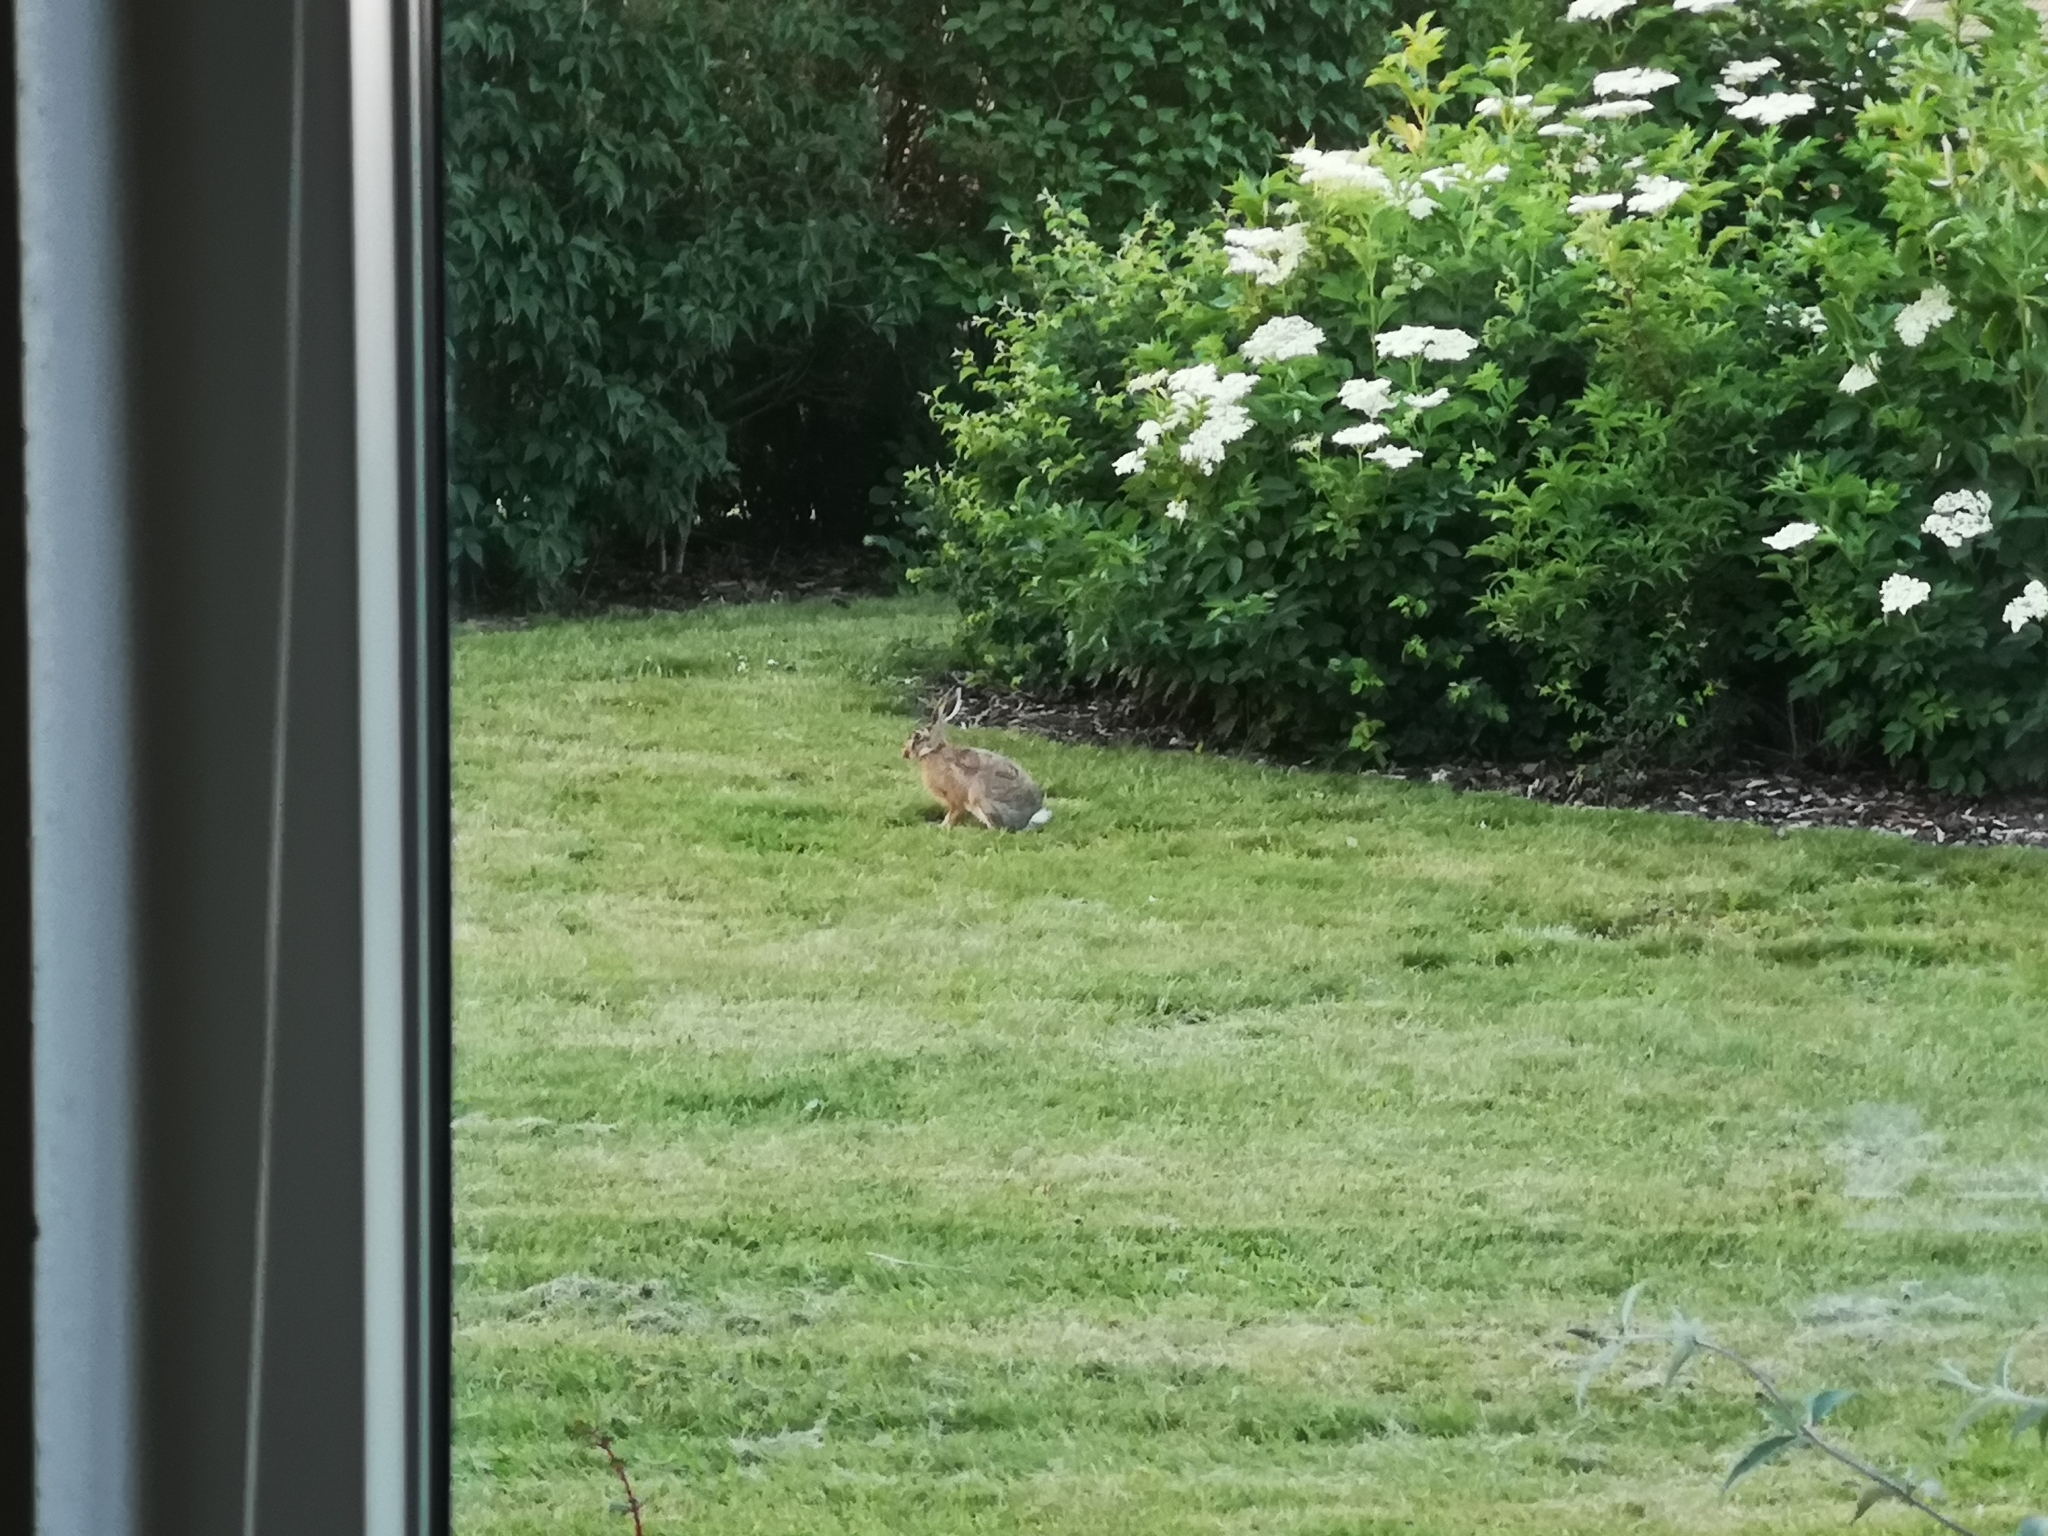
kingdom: Animalia
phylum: Chordata
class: Mammalia
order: Lagomorpha
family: Leporidae
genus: Lepus
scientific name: Lepus europaeus
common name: European hare
